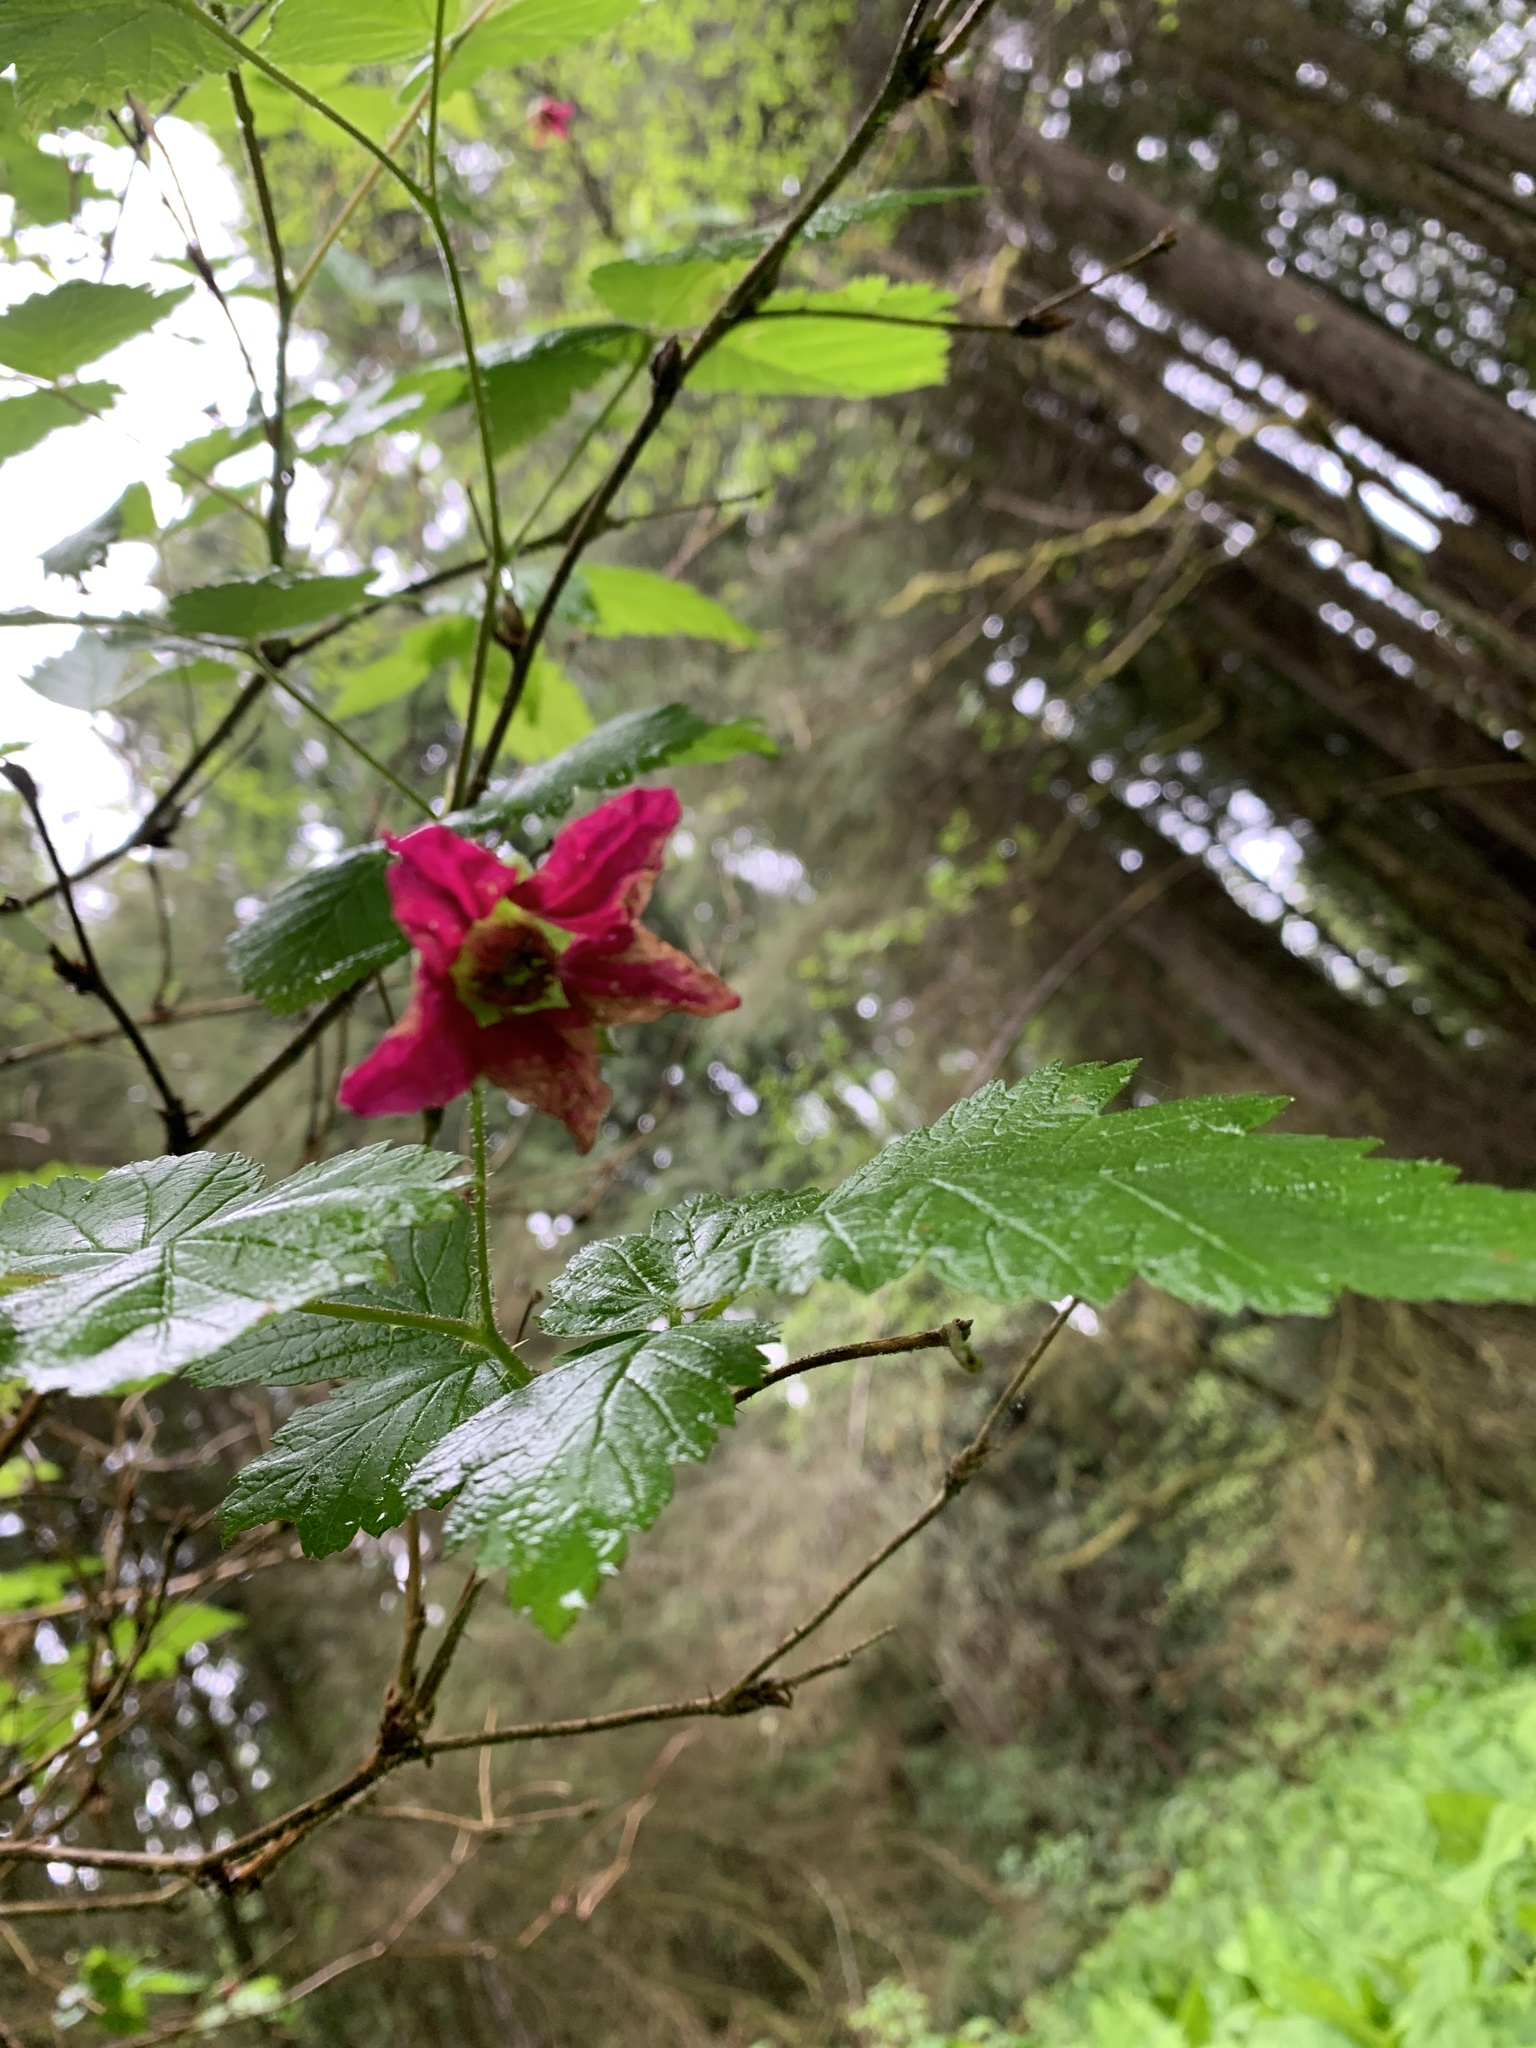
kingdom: Plantae
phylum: Tracheophyta
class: Magnoliopsida
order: Rosales
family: Rosaceae
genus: Rubus
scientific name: Rubus spectabilis
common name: Salmonberry
